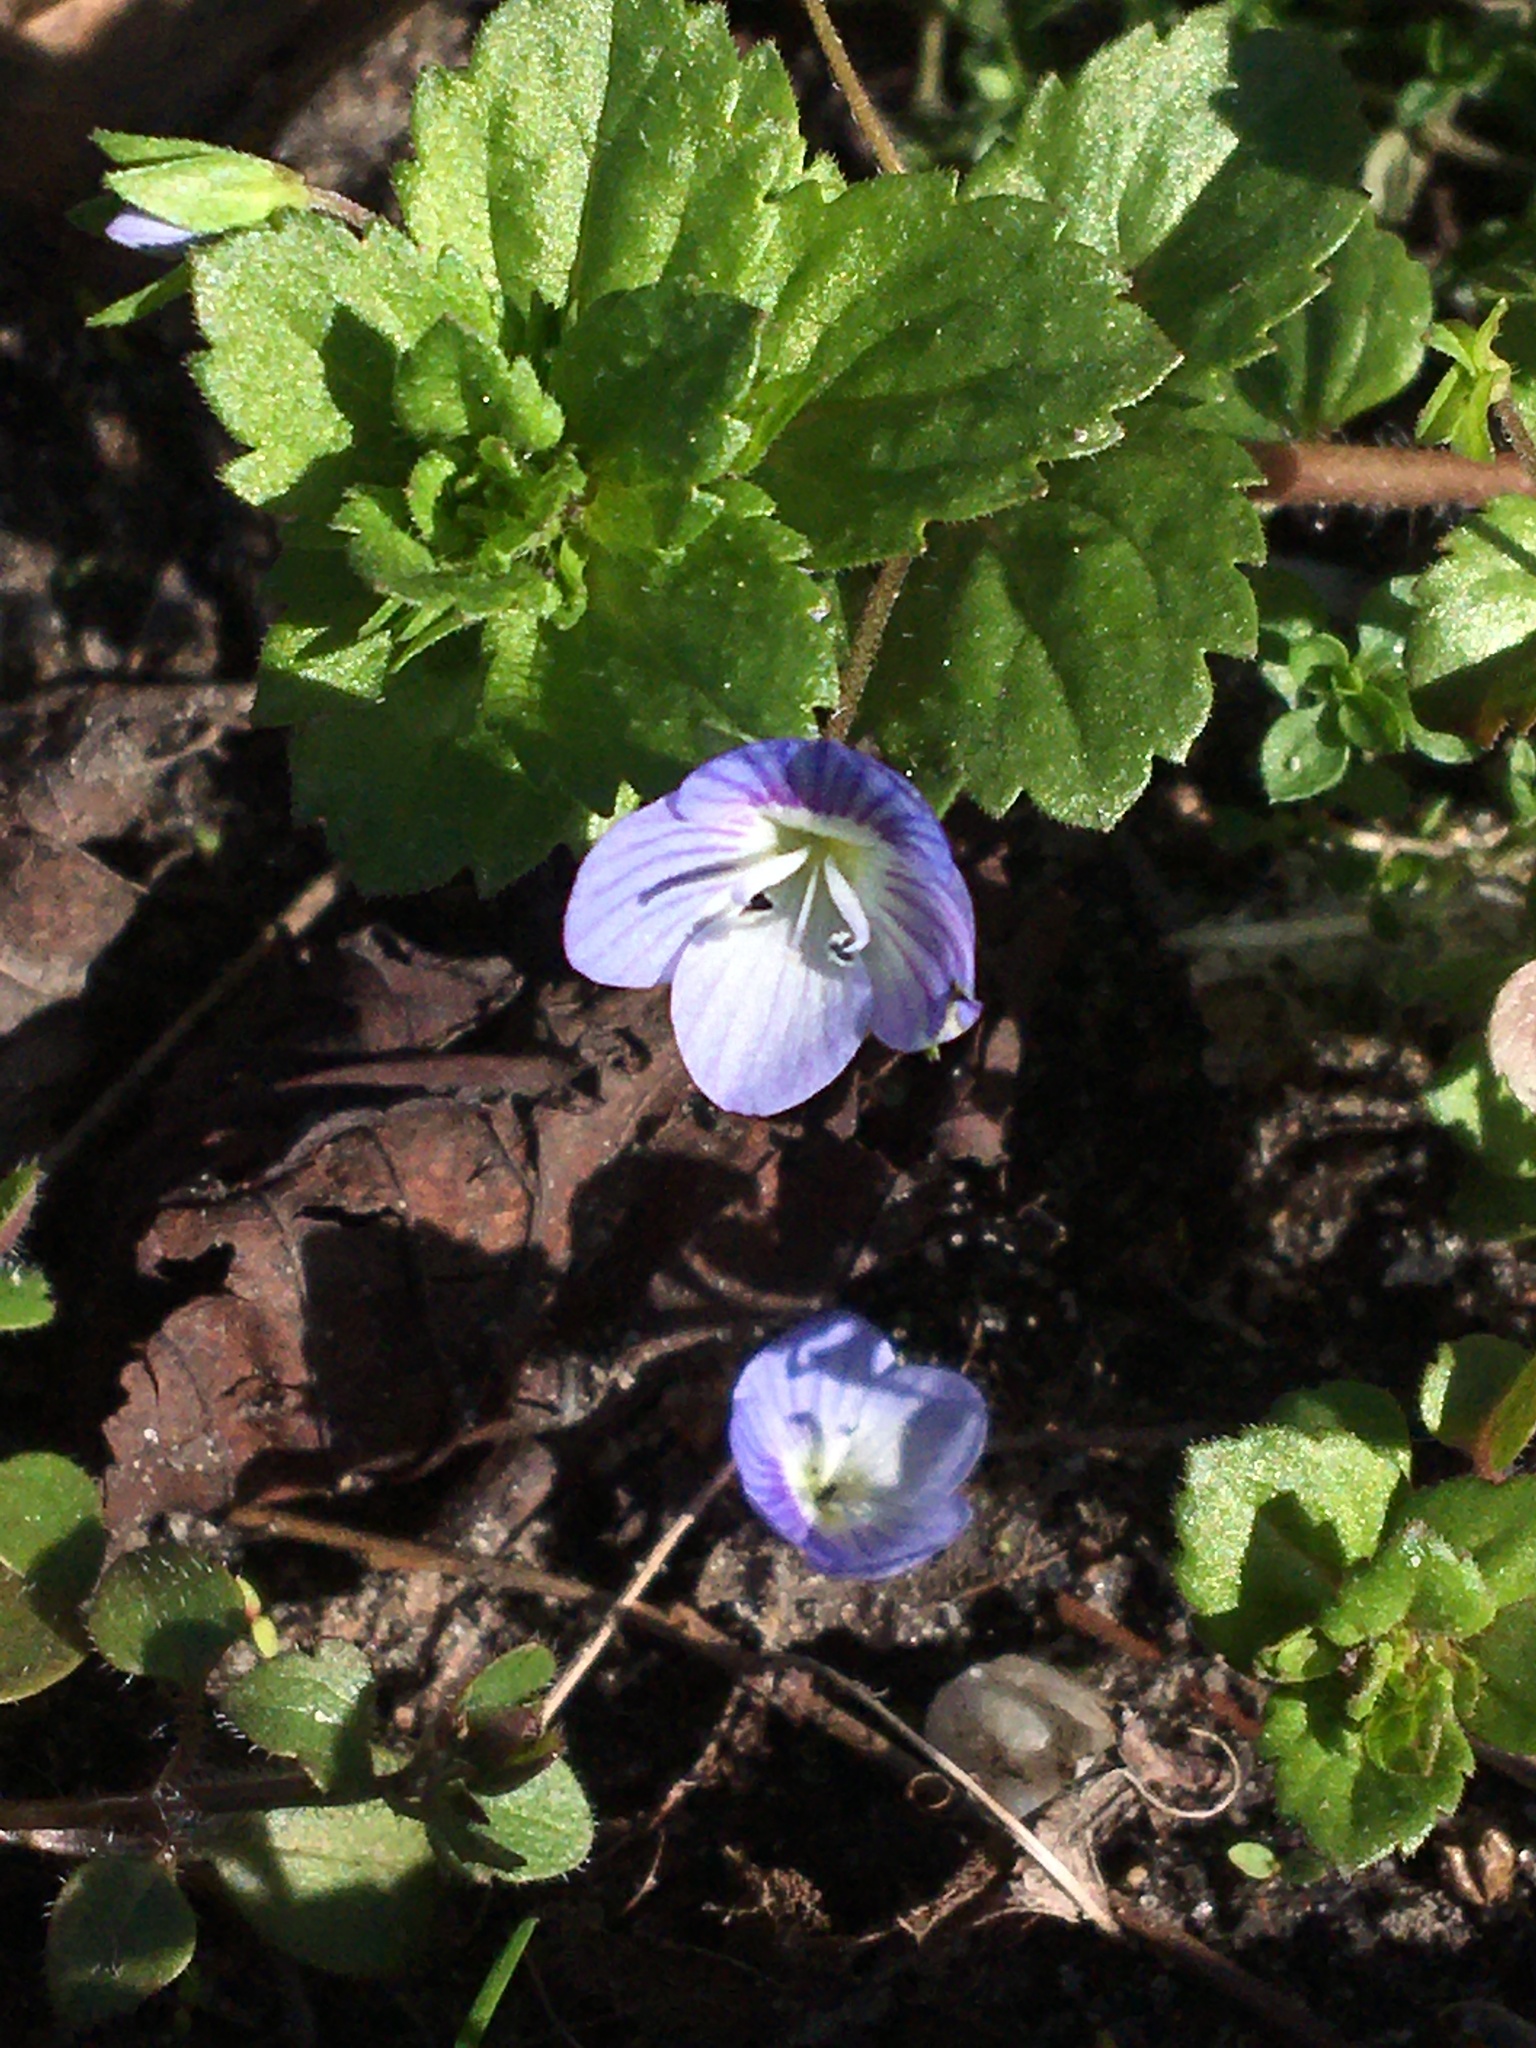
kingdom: Plantae
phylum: Tracheophyta
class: Magnoliopsida
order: Lamiales
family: Plantaginaceae
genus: Veronica
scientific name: Veronica persica
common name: Common field-speedwell
